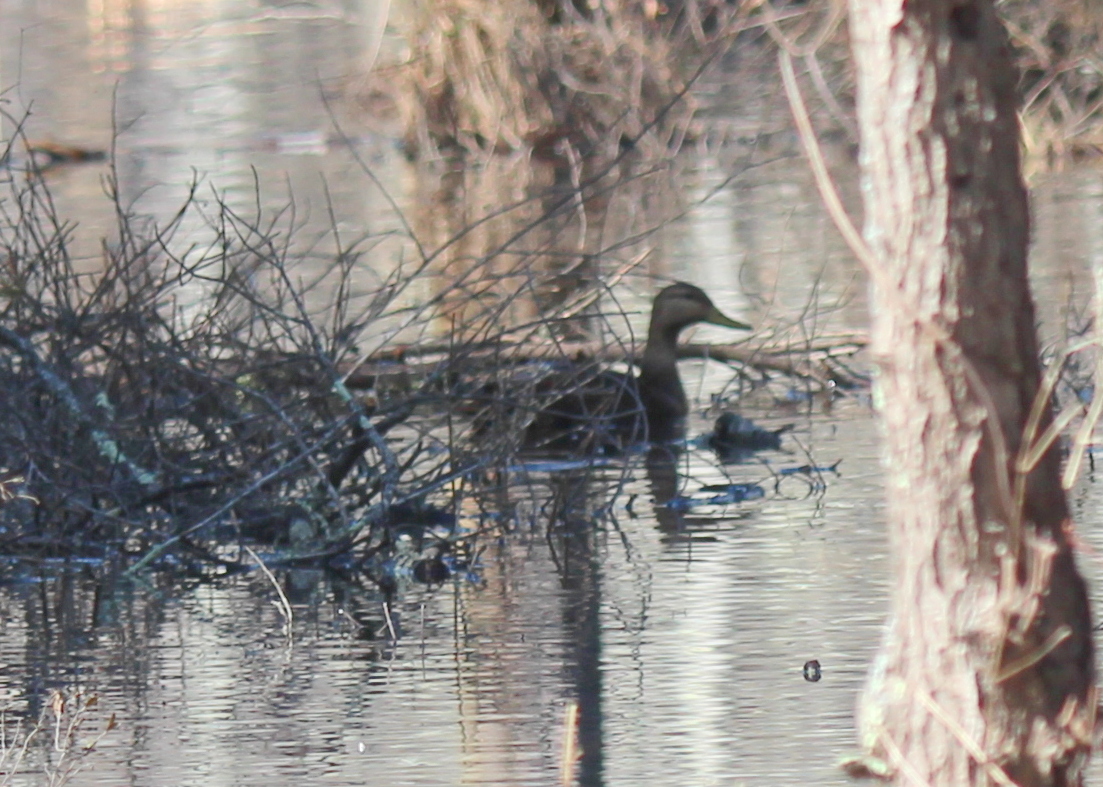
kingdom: Animalia
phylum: Chordata
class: Aves
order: Anseriformes
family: Anatidae
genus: Anas
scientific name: Anas rubripes
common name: American black duck
